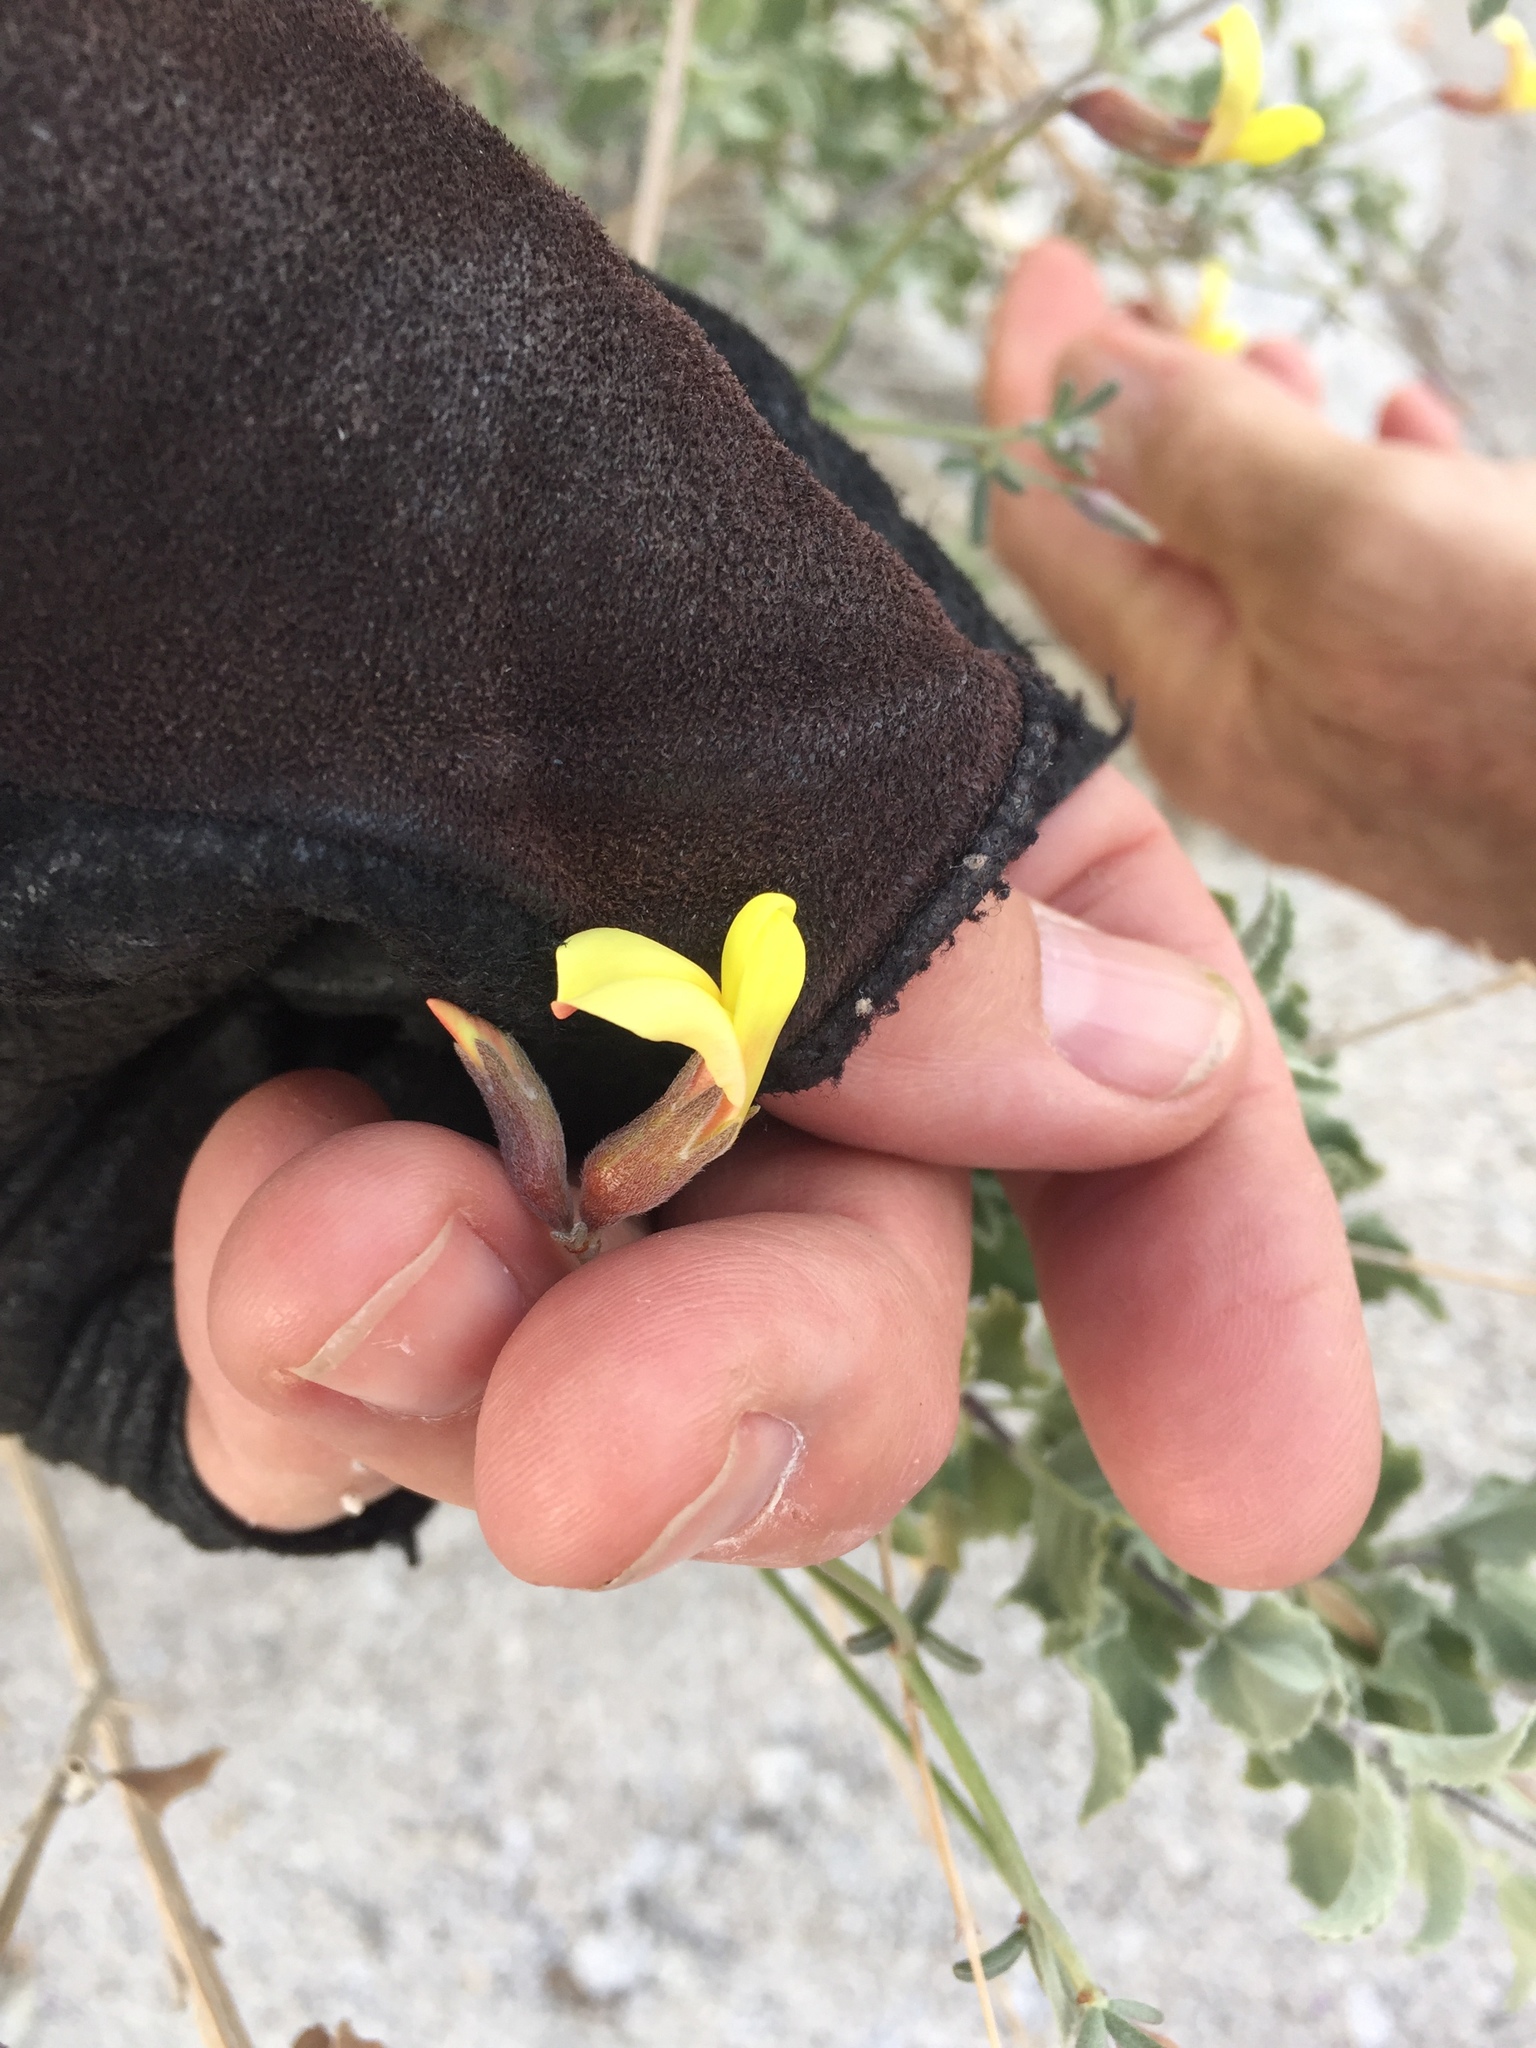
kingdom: Plantae
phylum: Tracheophyta
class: Magnoliopsida
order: Fabales
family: Fabaceae
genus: Acmispon
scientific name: Acmispon rigidus
